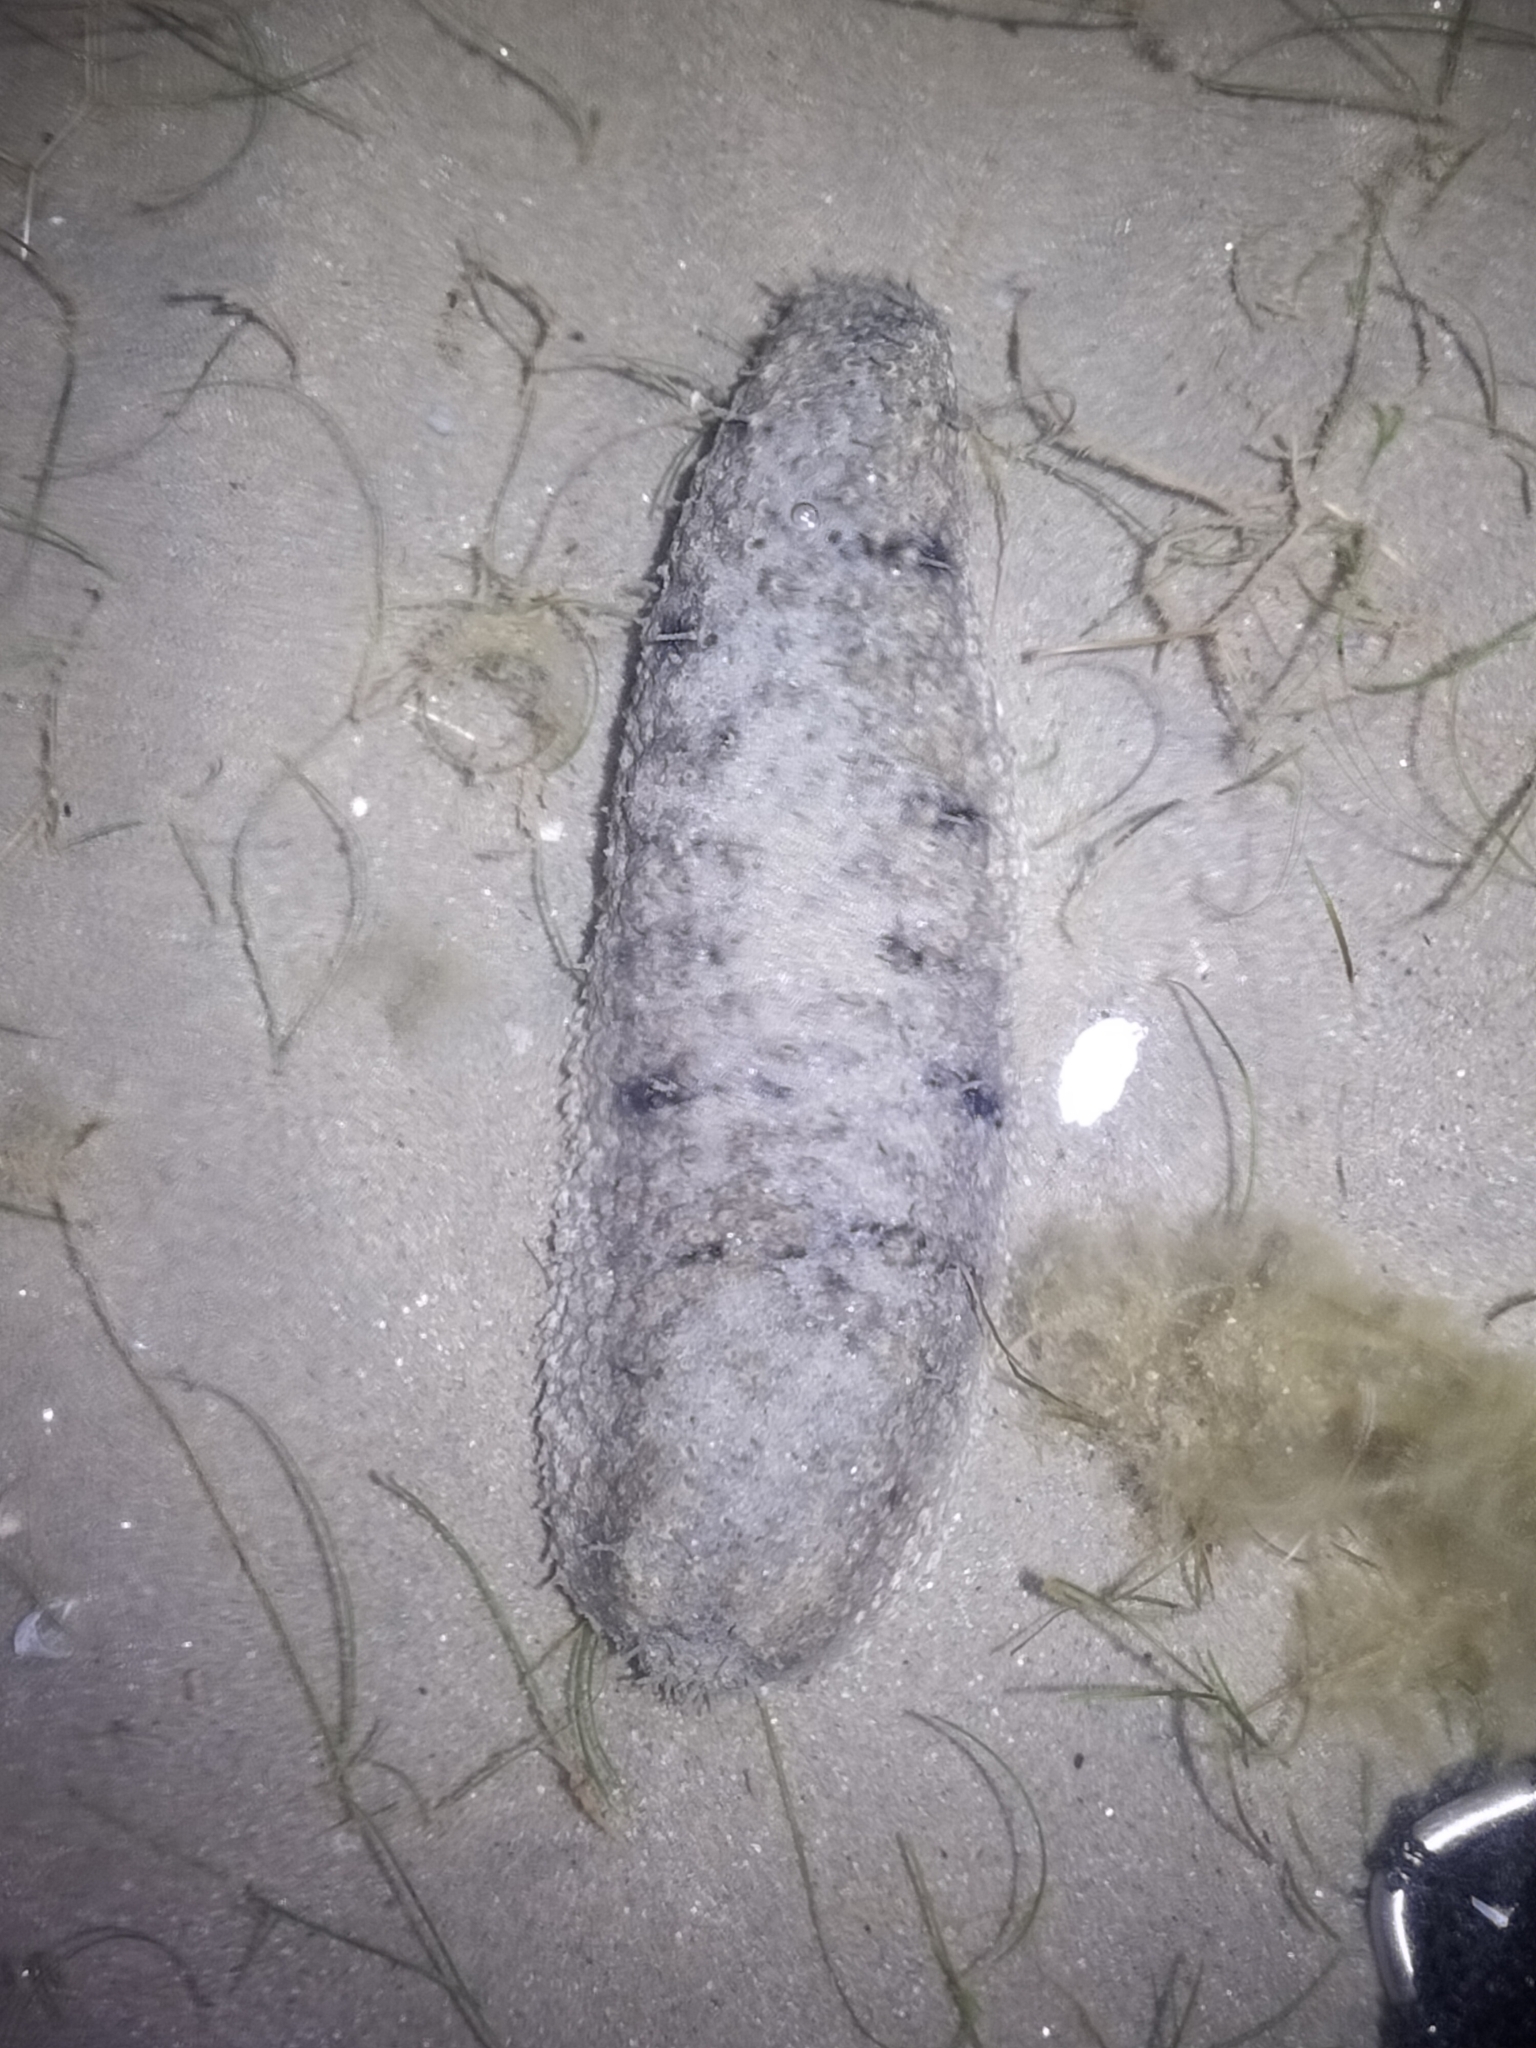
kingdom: Animalia
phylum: Echinodermata
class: Holothuroidea
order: Holothuriida
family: Holothuriidae
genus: Holothuria
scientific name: Holothuria scabra
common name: Golden sandfish
